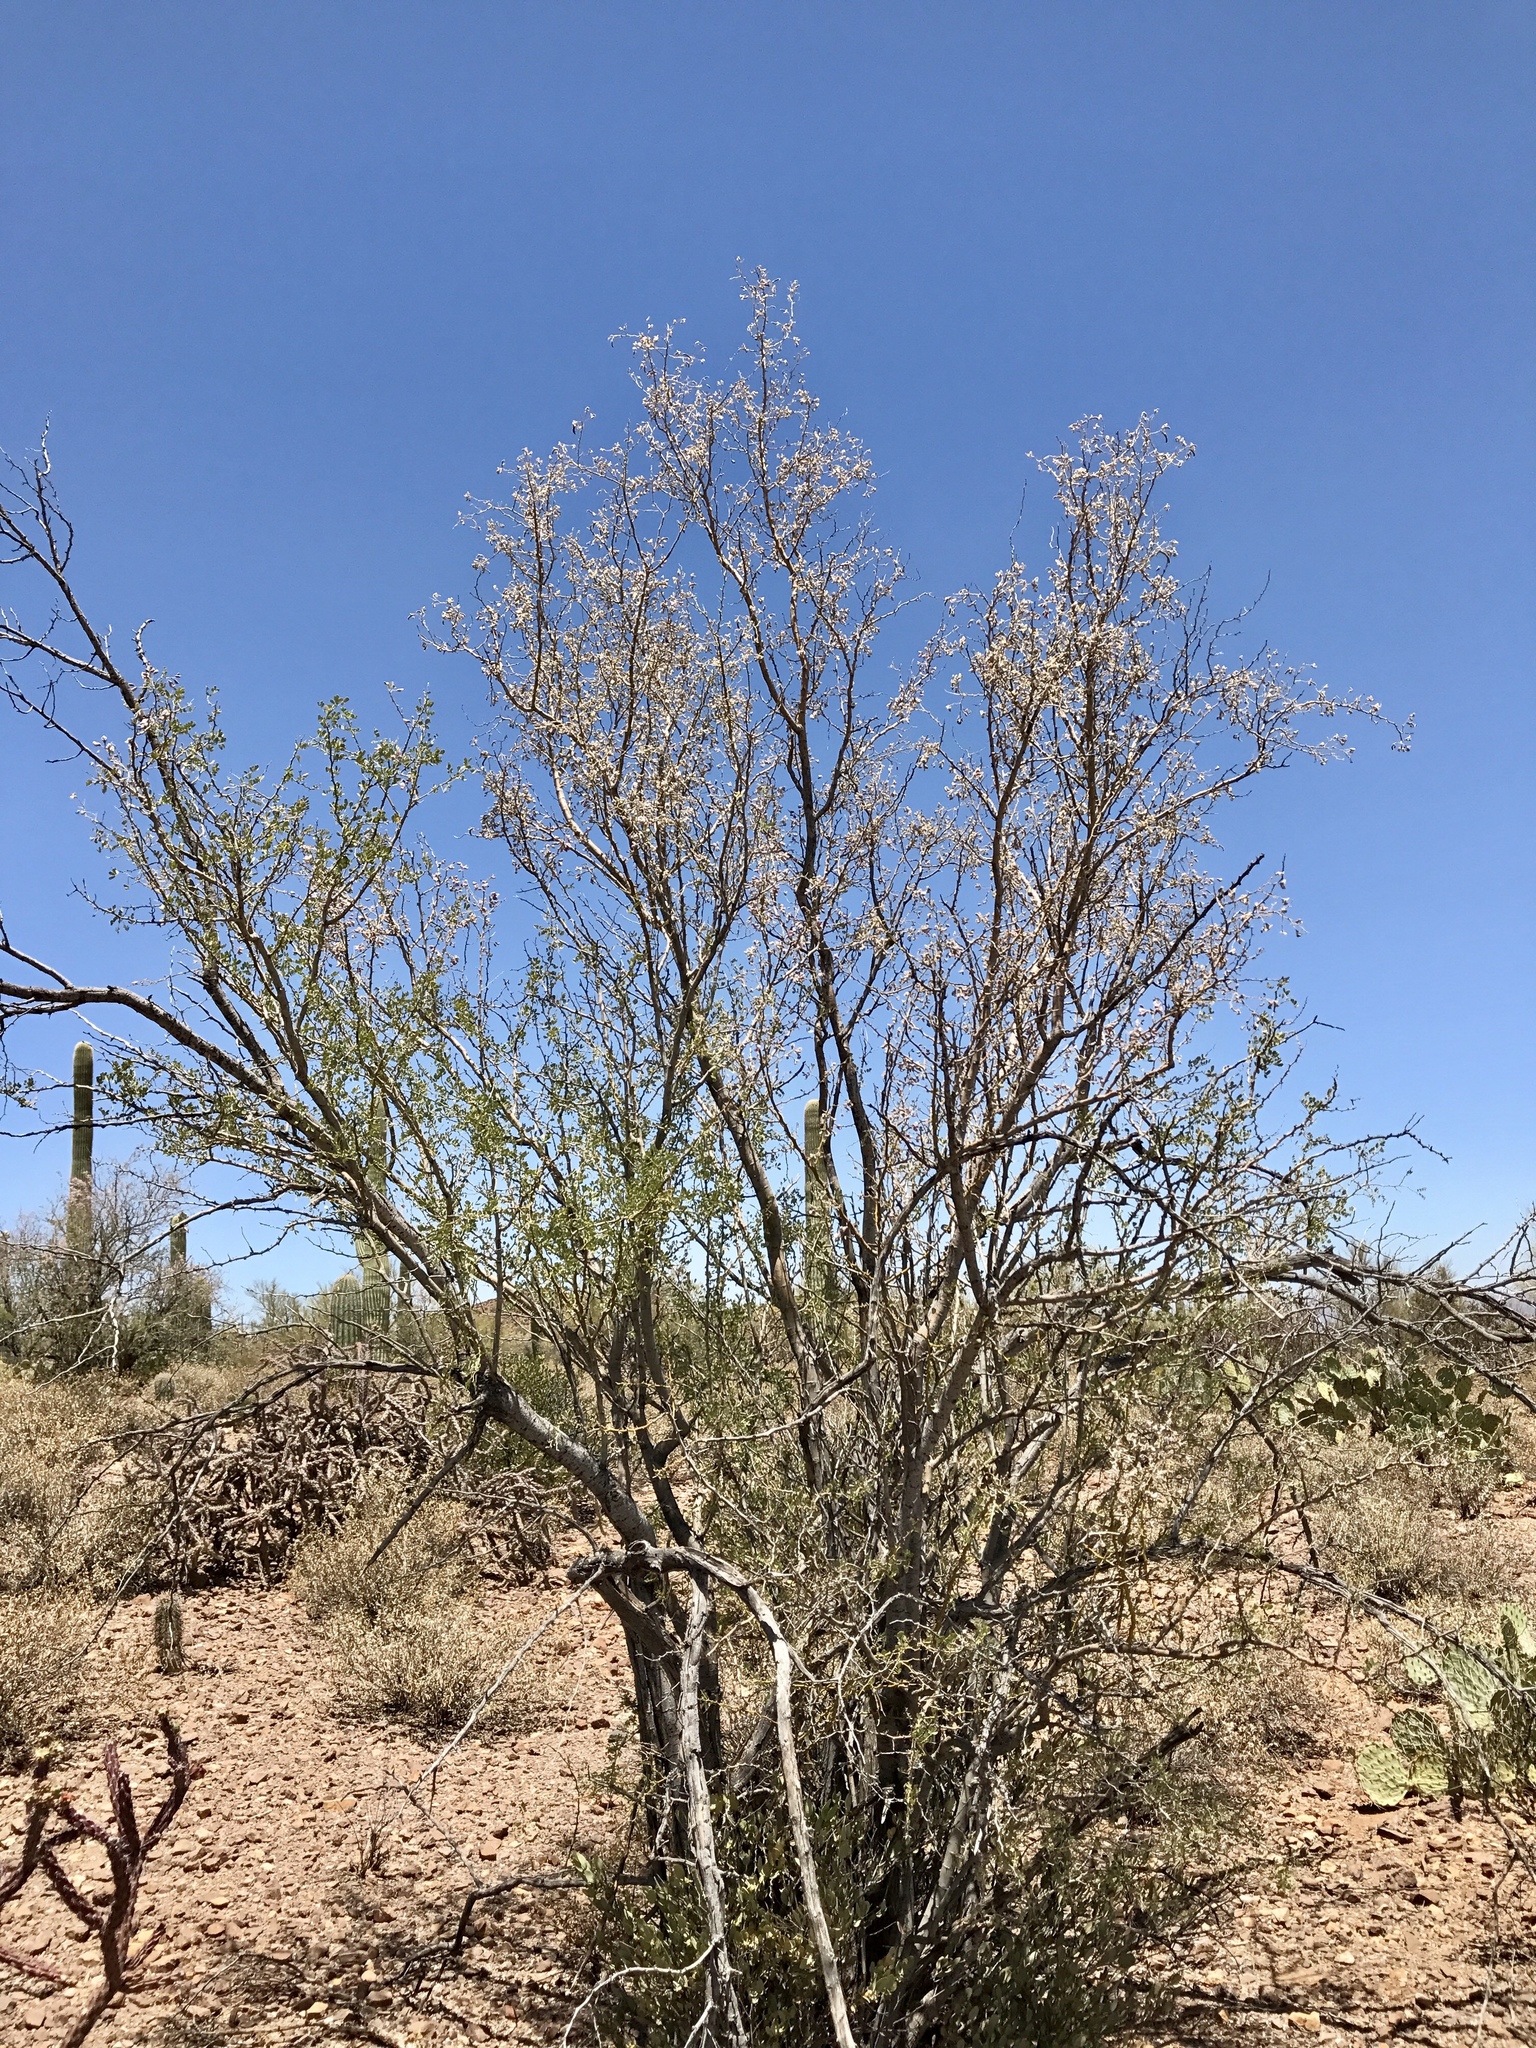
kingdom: Plantae
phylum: Tracheophyta
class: Magnoliopsida
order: Fabales
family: Fabaceae
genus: Olneya
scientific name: Olneya tesota
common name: Desert ironwood
